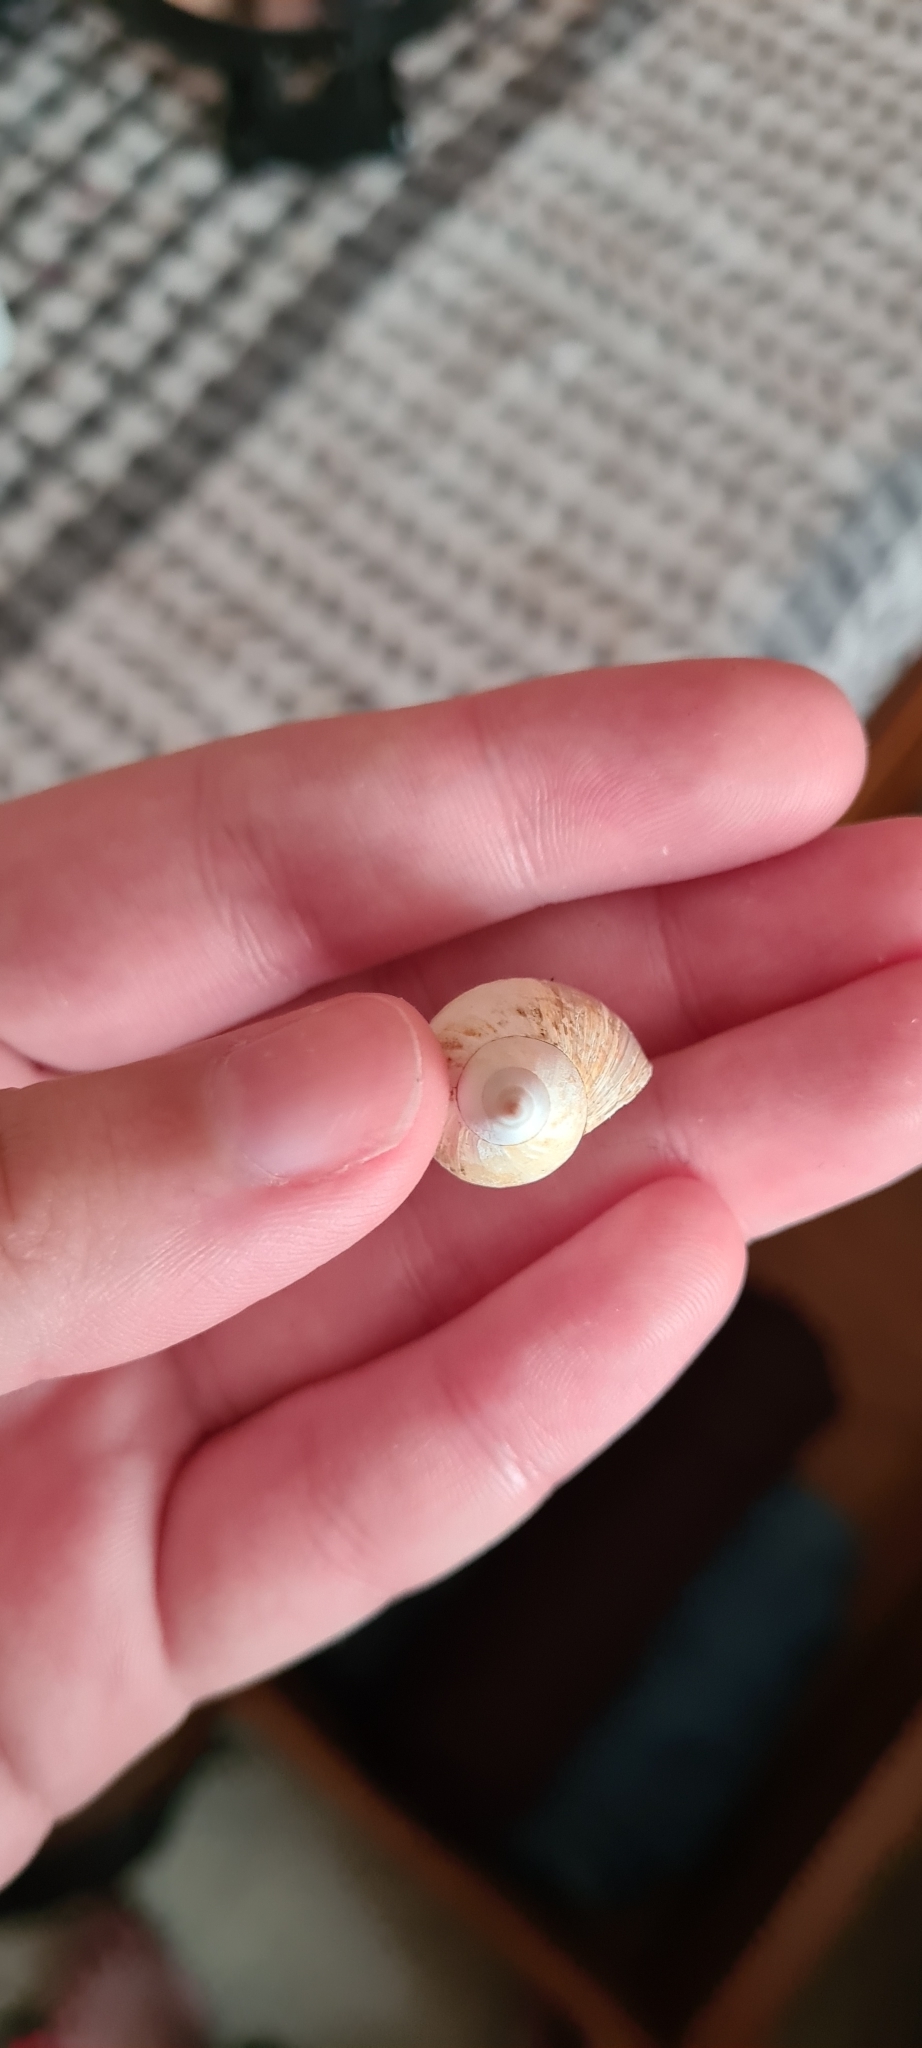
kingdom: Animalia
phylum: Mollusca
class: Gastropoda
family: Lymnaeidae
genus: Lymnaea
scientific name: Lymnaea stagnalis
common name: Great pond snail
